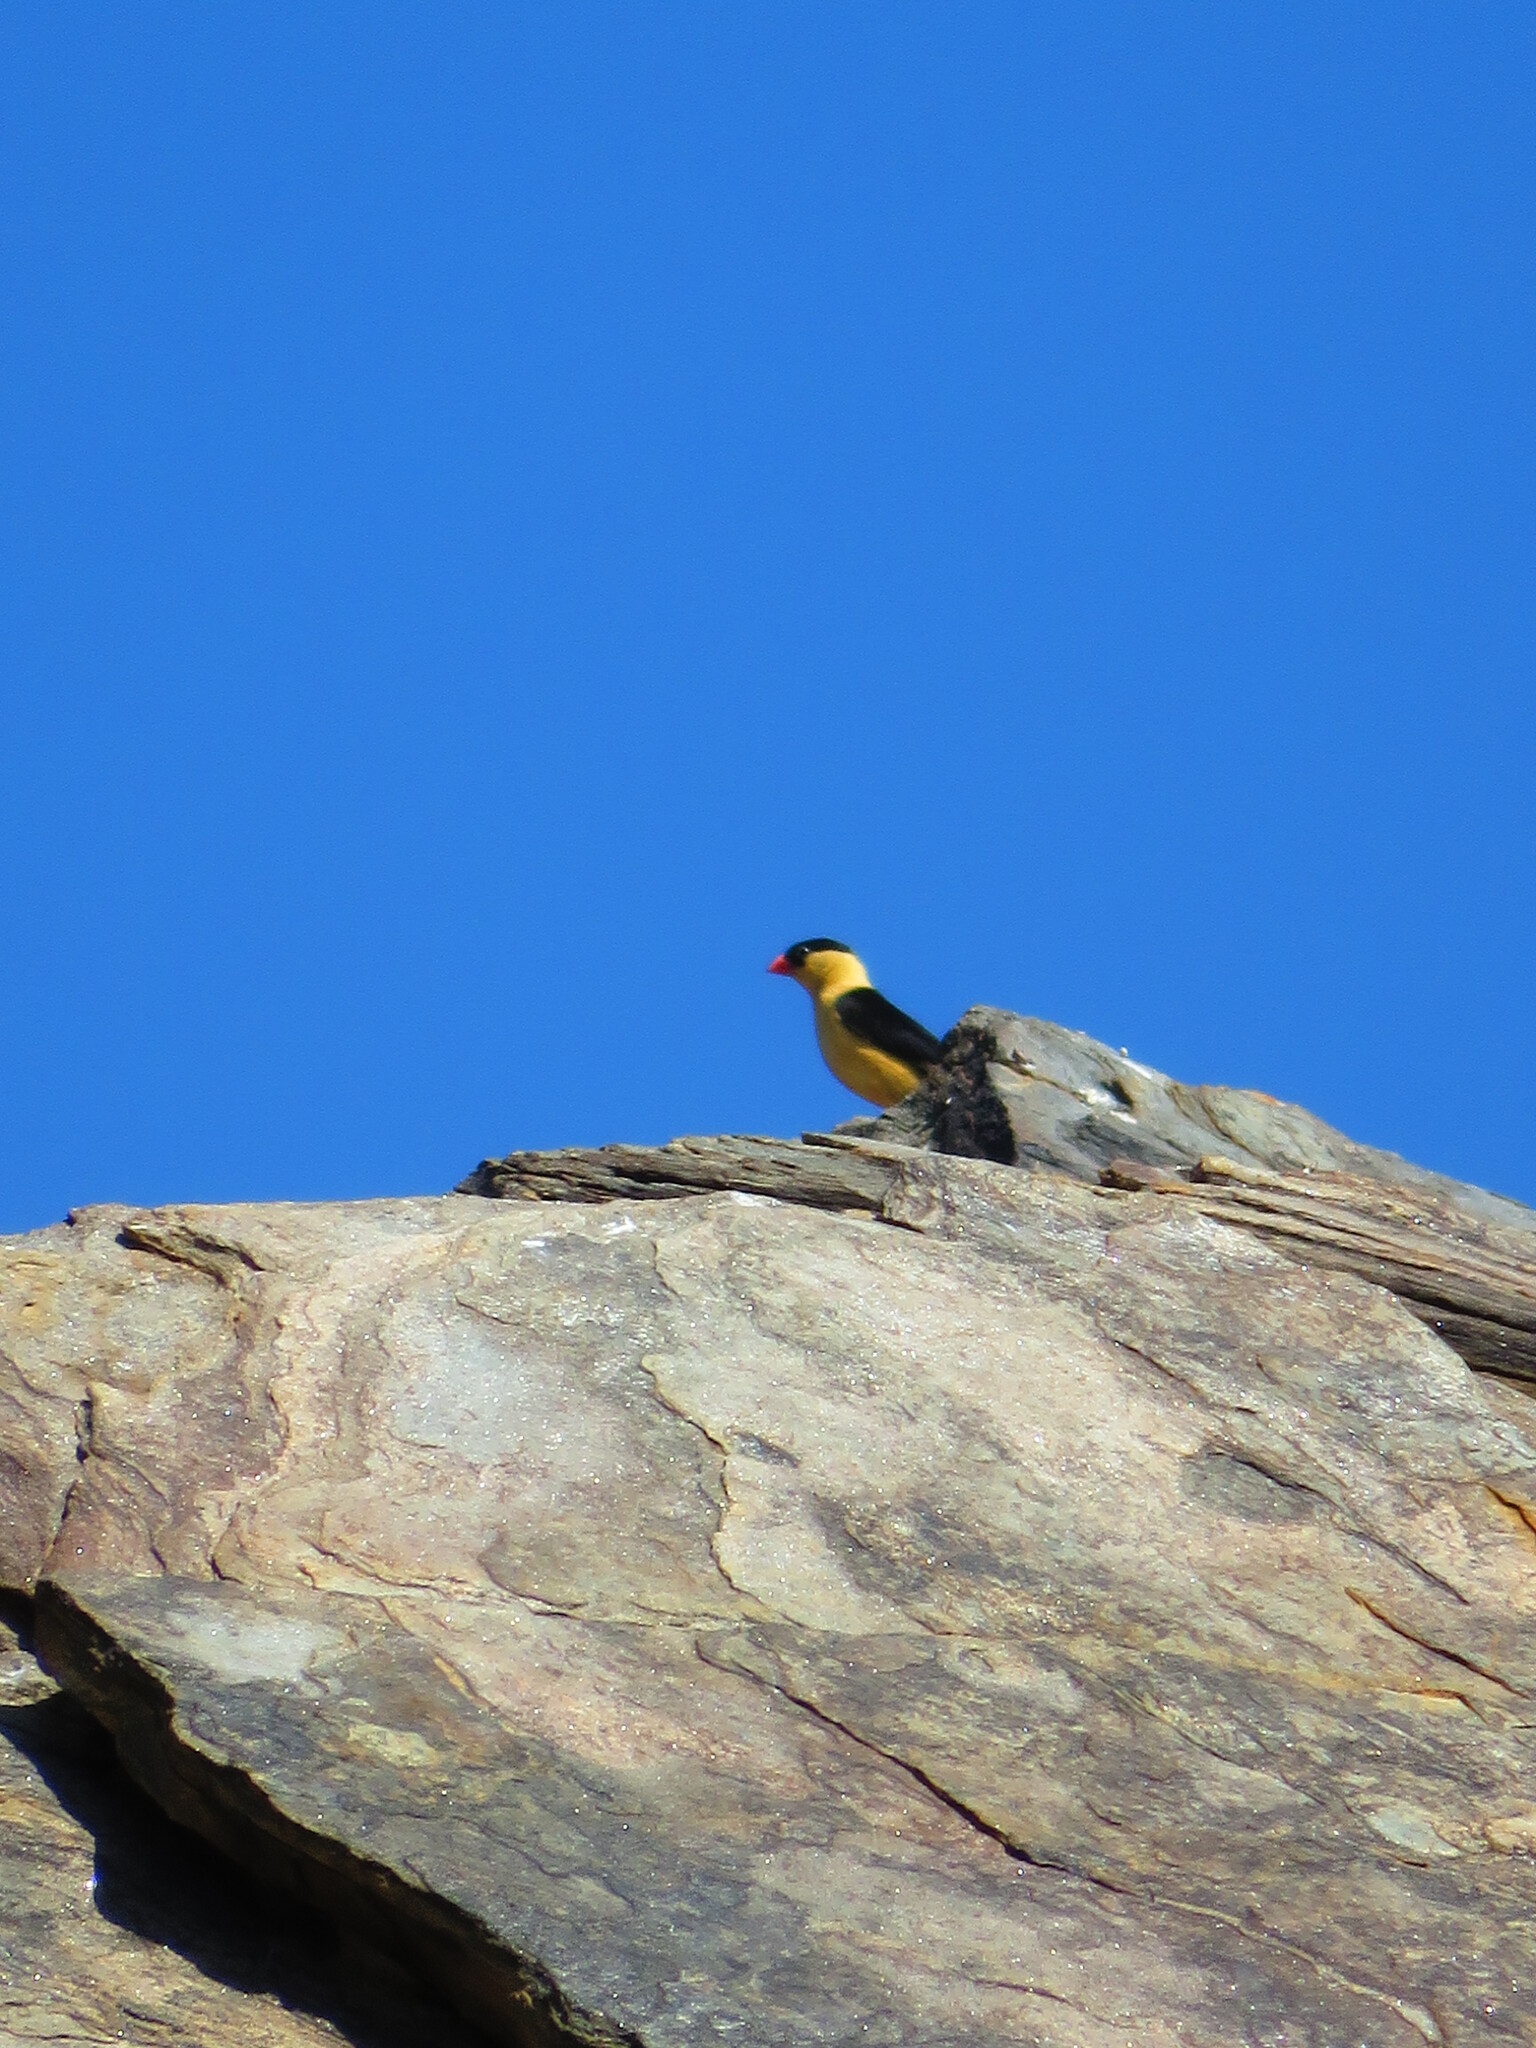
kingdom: Animalia
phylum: Chordata
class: Aves
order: Passeriformes
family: Viduidae
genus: Vidua
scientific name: Vidua regia
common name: Shaft-tailed whydah
